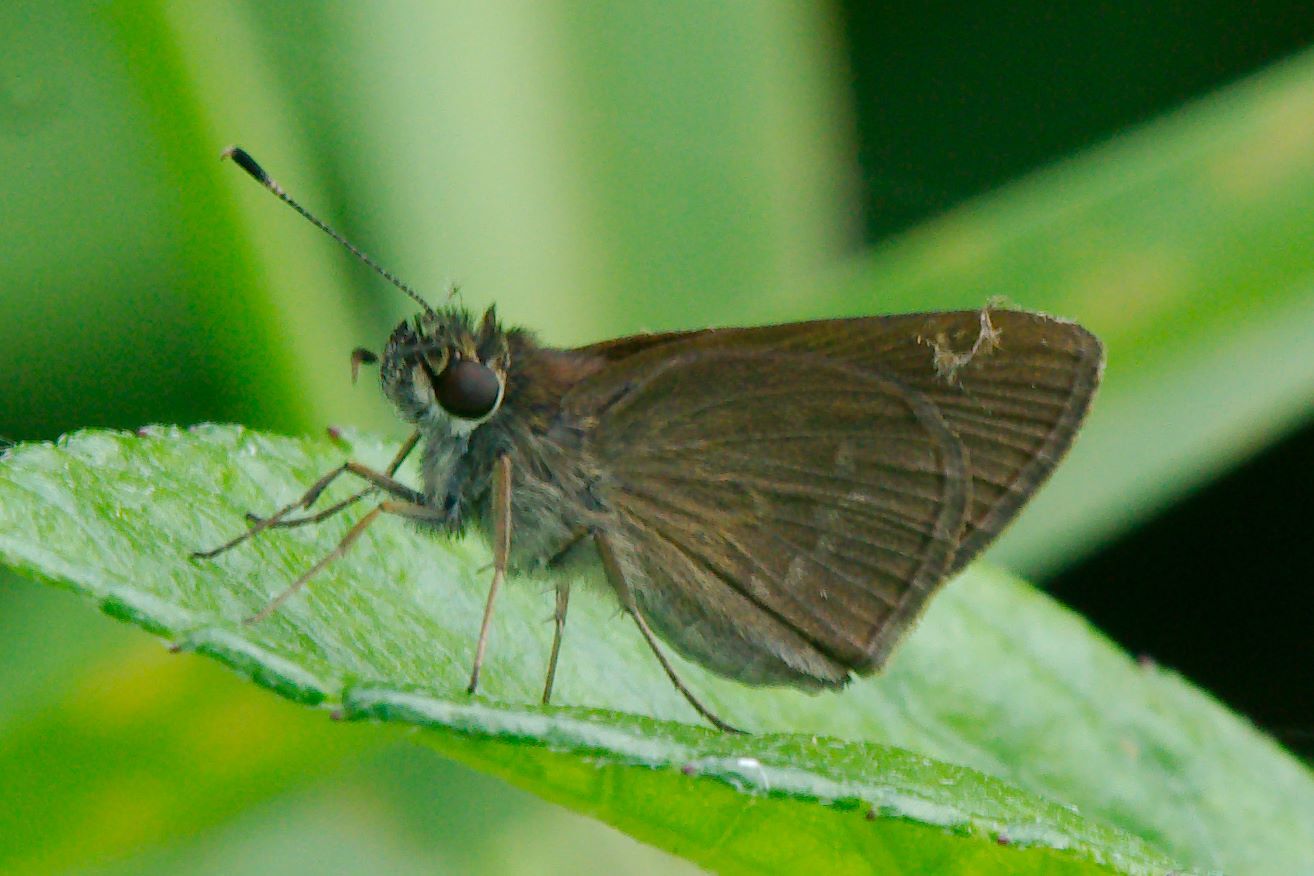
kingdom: Animalia
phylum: Arthropoda
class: Insecta
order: Lepidoptera
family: Hesperiidae
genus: Cymaenes
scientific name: Cymaenes tripunctus
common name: Dingy dotted skipper
